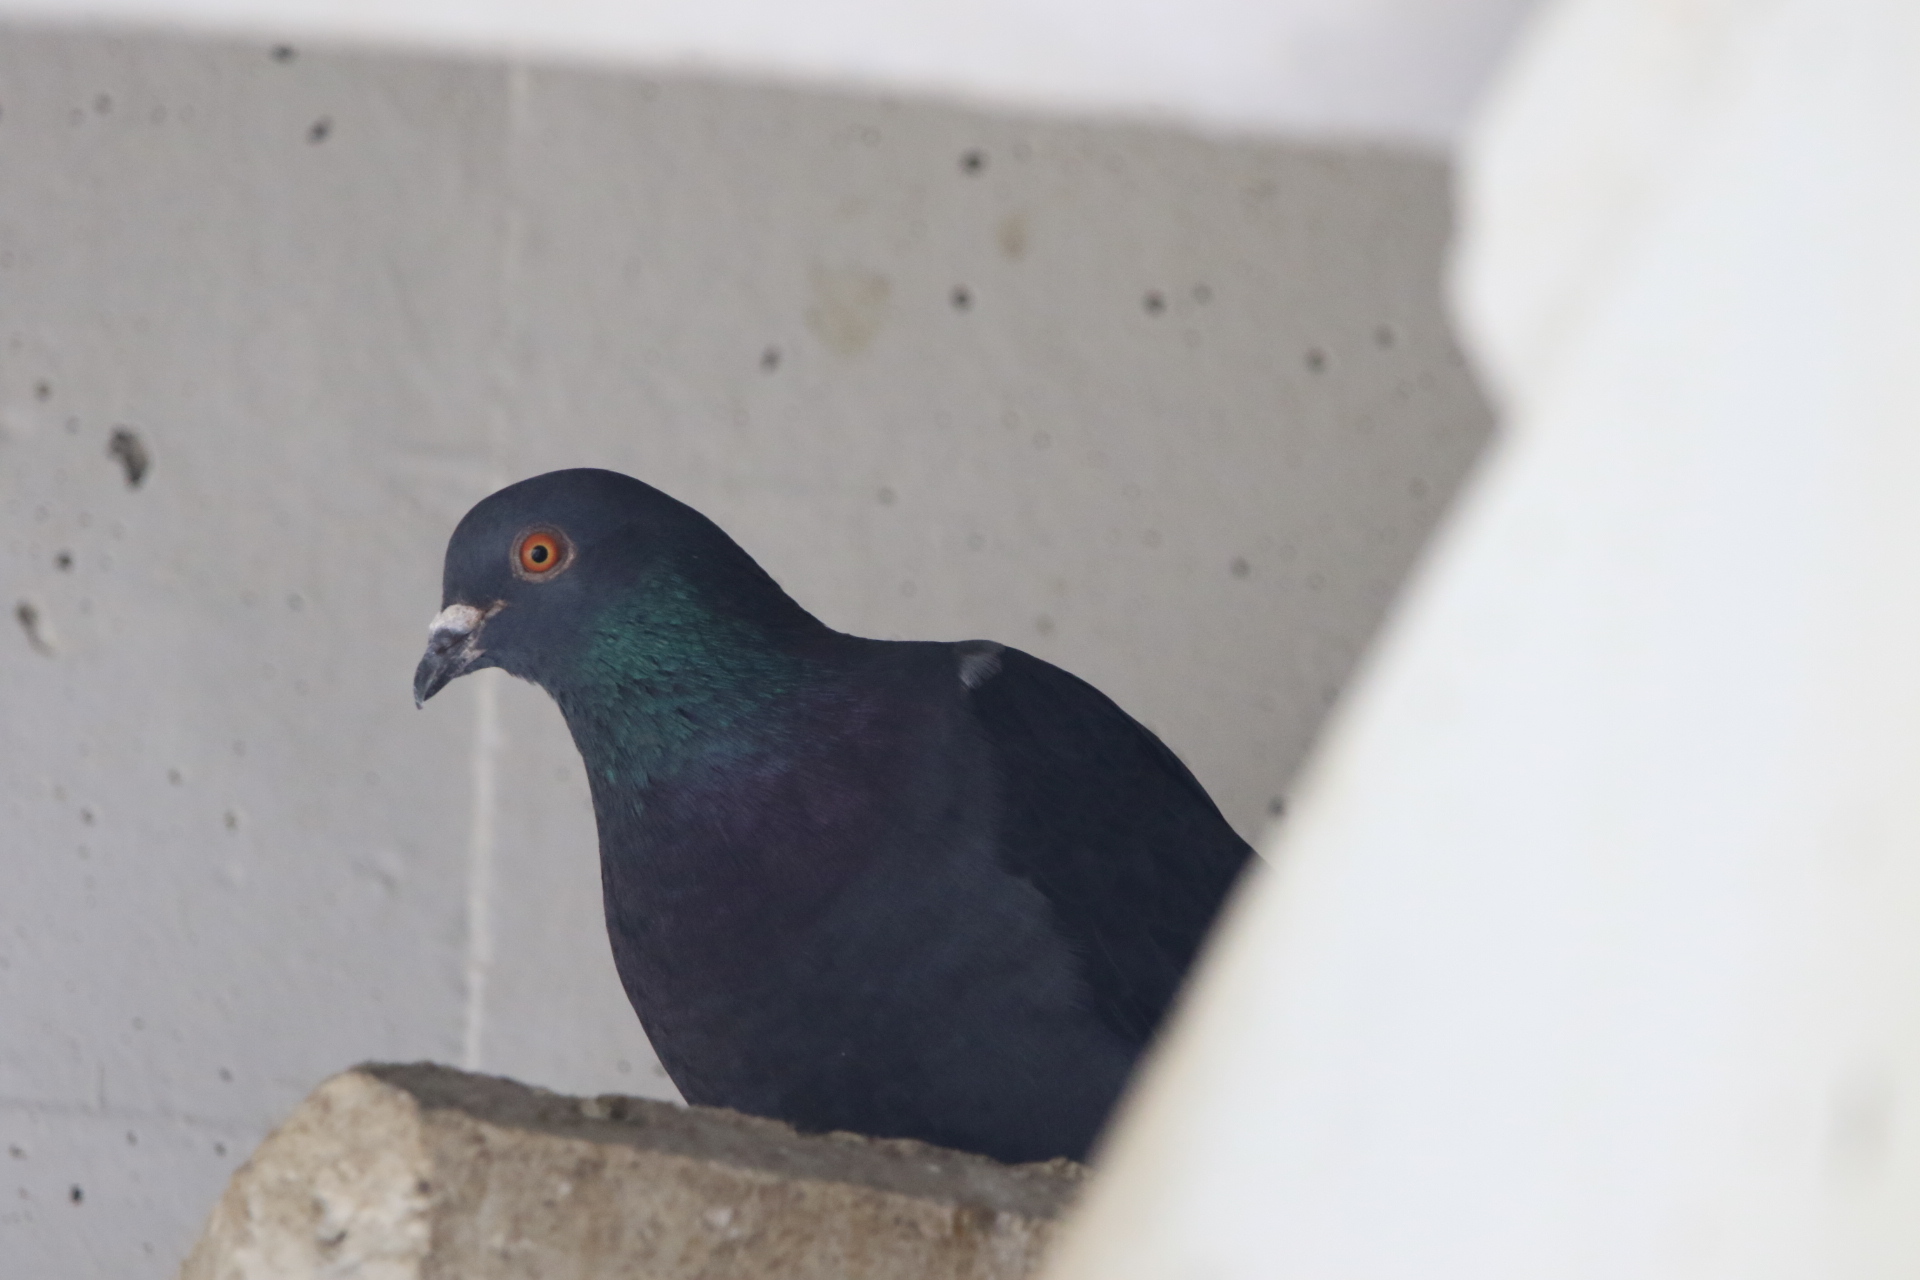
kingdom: Animalia
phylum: Chordata
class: Aves
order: Columbiformes
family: Columbidae
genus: Columba
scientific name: Columba livia
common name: Rock pigeon
